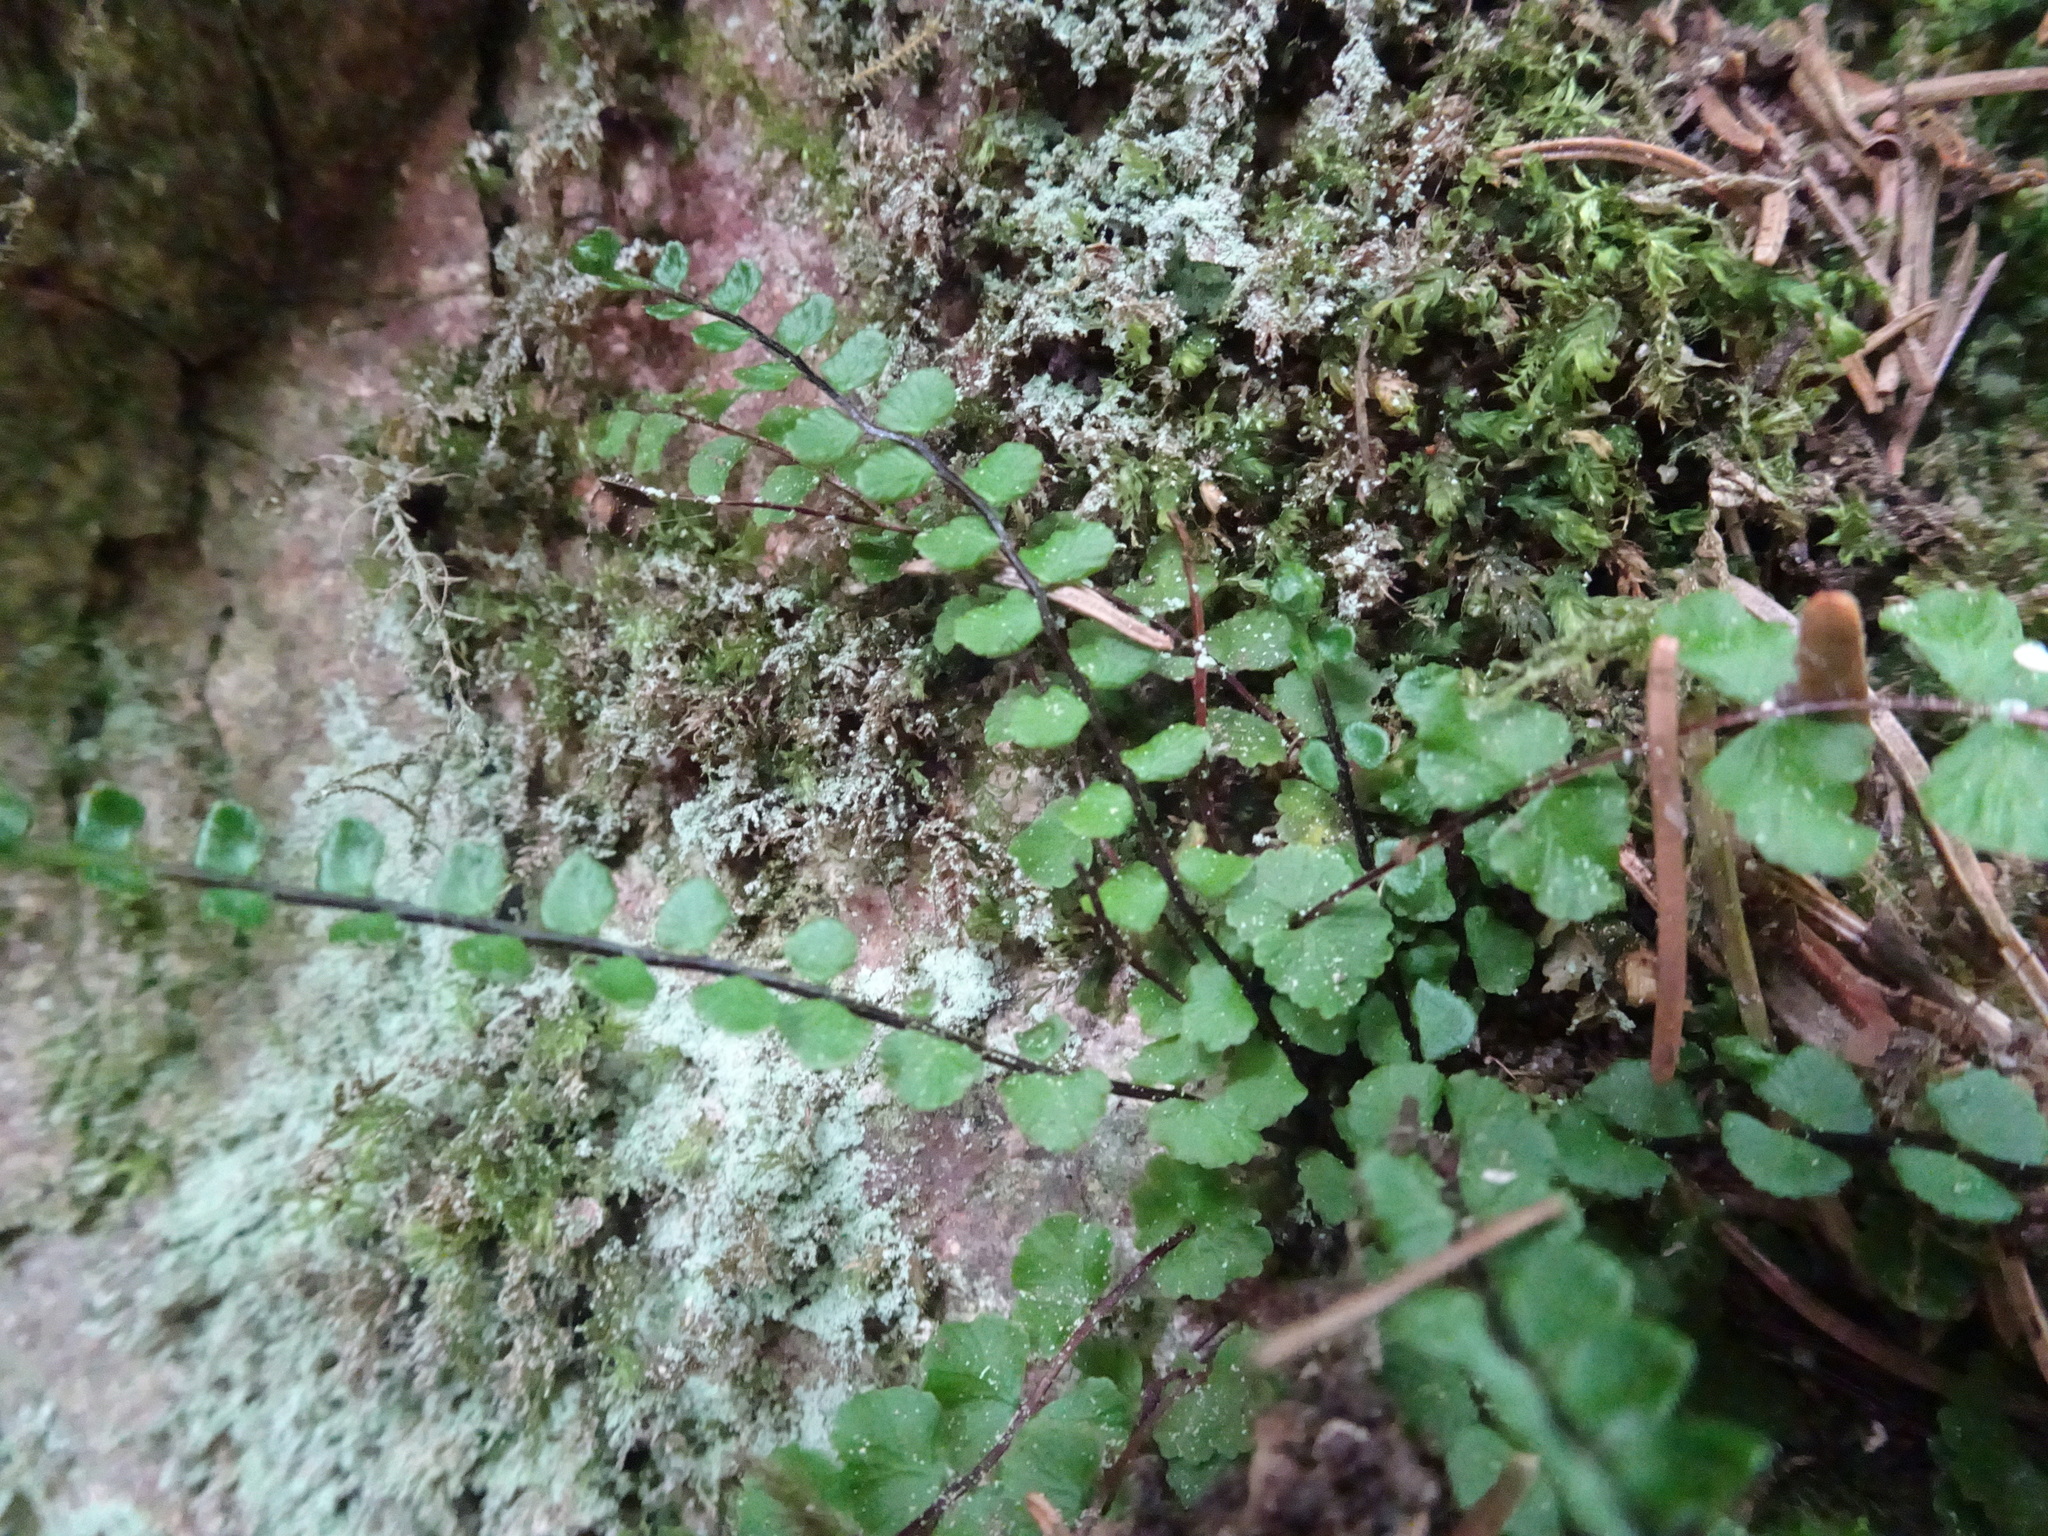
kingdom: Plantae
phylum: Tracheophyta
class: Polypodiopsida
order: Polypodiales
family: Aspleniaceae
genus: Asplenium
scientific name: Asplenium trichomanes
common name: Maidenhair spleenwort
